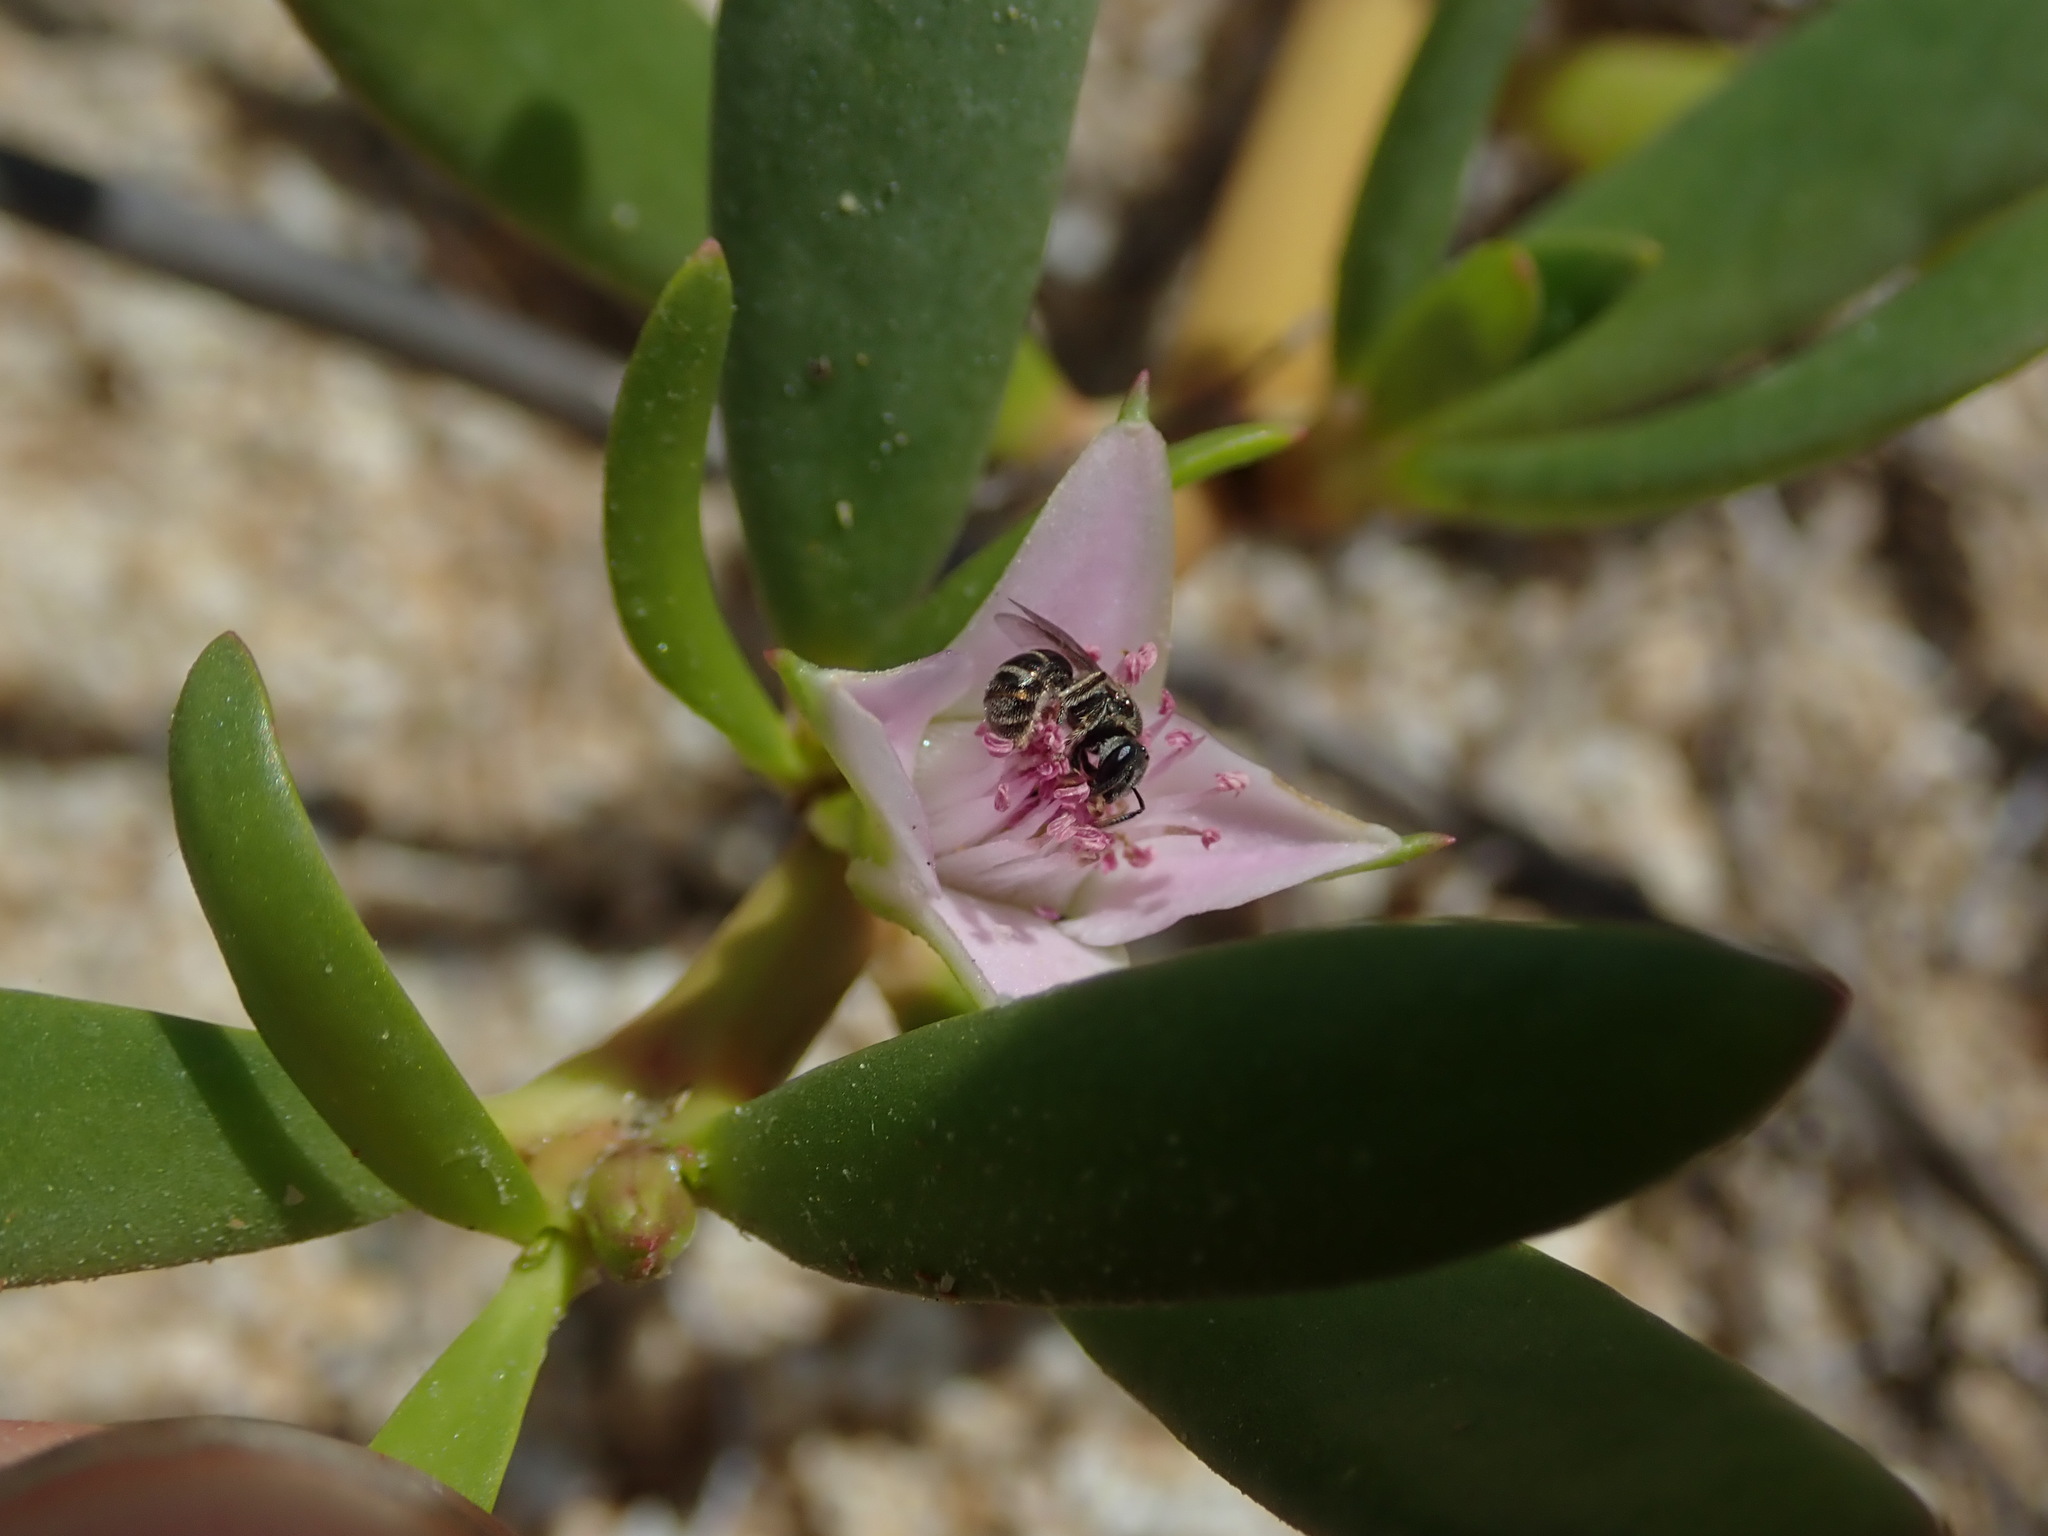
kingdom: Animalia
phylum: Arthropoda
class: Insecta
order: Hymenoptera
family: Halictidae
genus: Dialictus
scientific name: Dialictus
